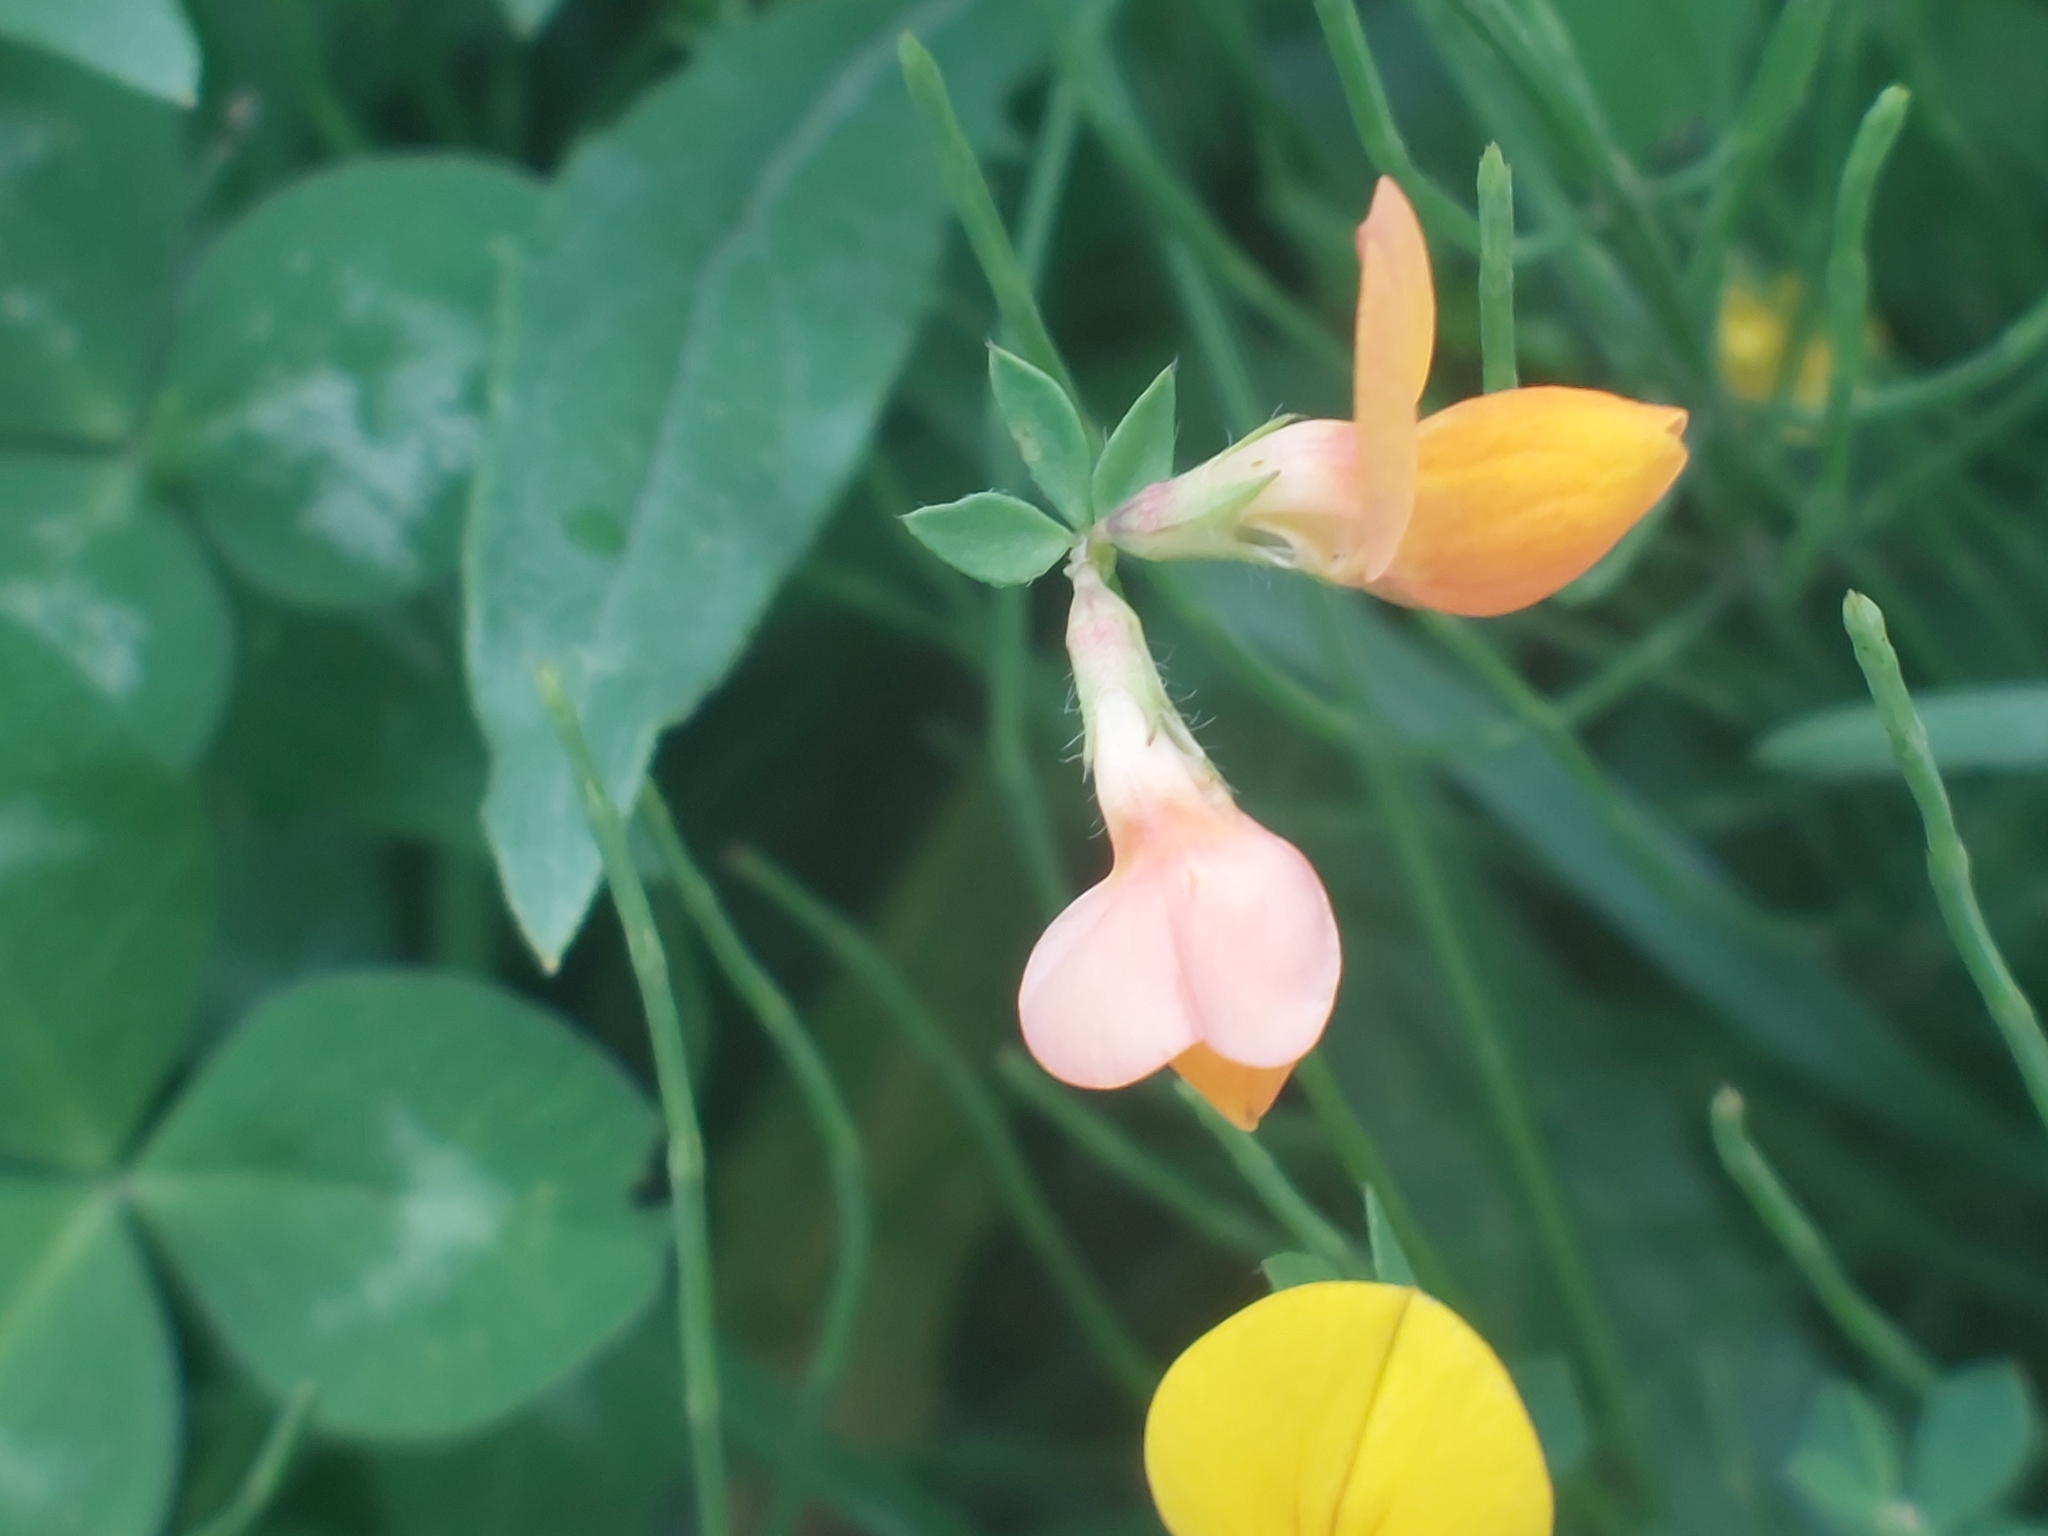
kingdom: Plantae
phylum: Tracheophyta
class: Magnoliopsida
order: Fabales
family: Fabaceae
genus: Lotus
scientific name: Lotus corniculatus
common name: Common bird's-foot-trefoil
